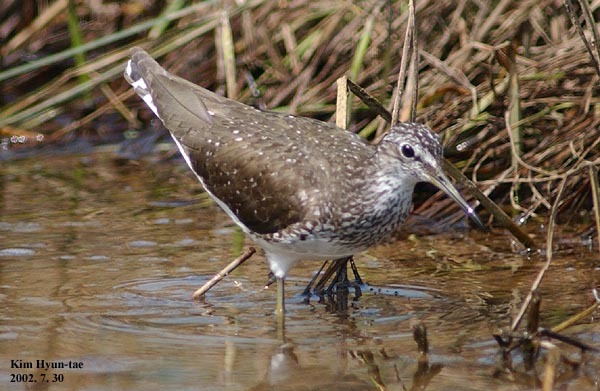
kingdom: Animalia
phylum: Chordata
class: Aves
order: Charadriiformes
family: Scolopacidae
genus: Tringa
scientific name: Tringa ochropus
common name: Green sandpiper
